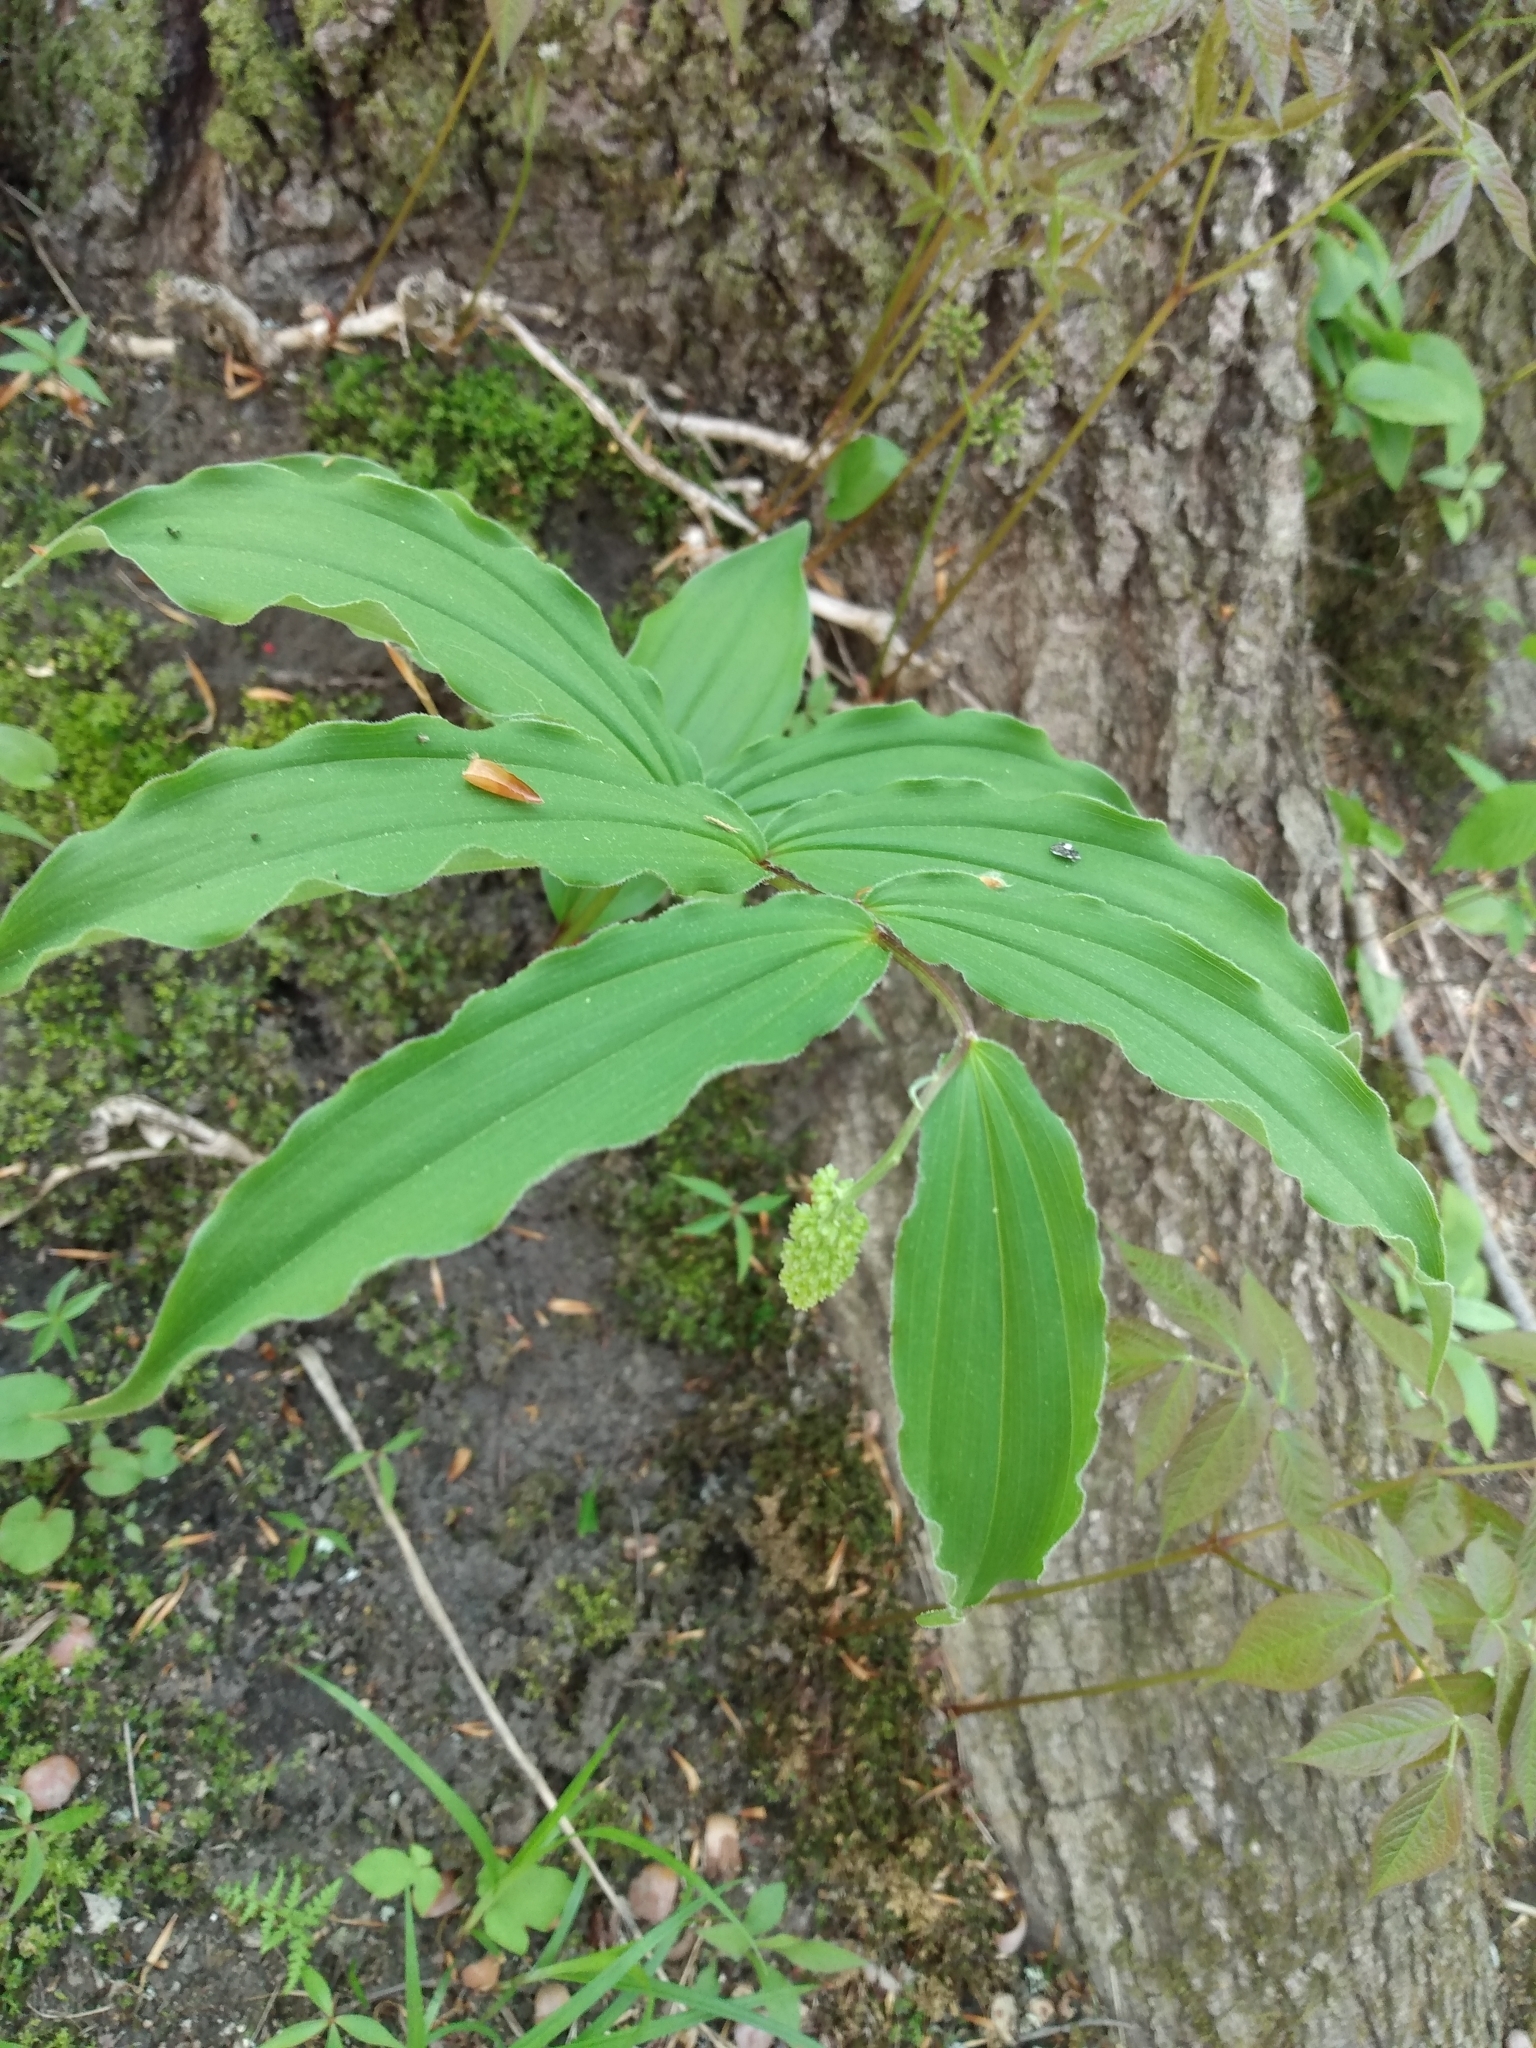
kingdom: Plantae
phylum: Tracheophyta
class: Liliopsida
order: Asparagales
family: Asparagaceae
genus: Maianthemum
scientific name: Maianthemum racemosum
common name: False spikenard
